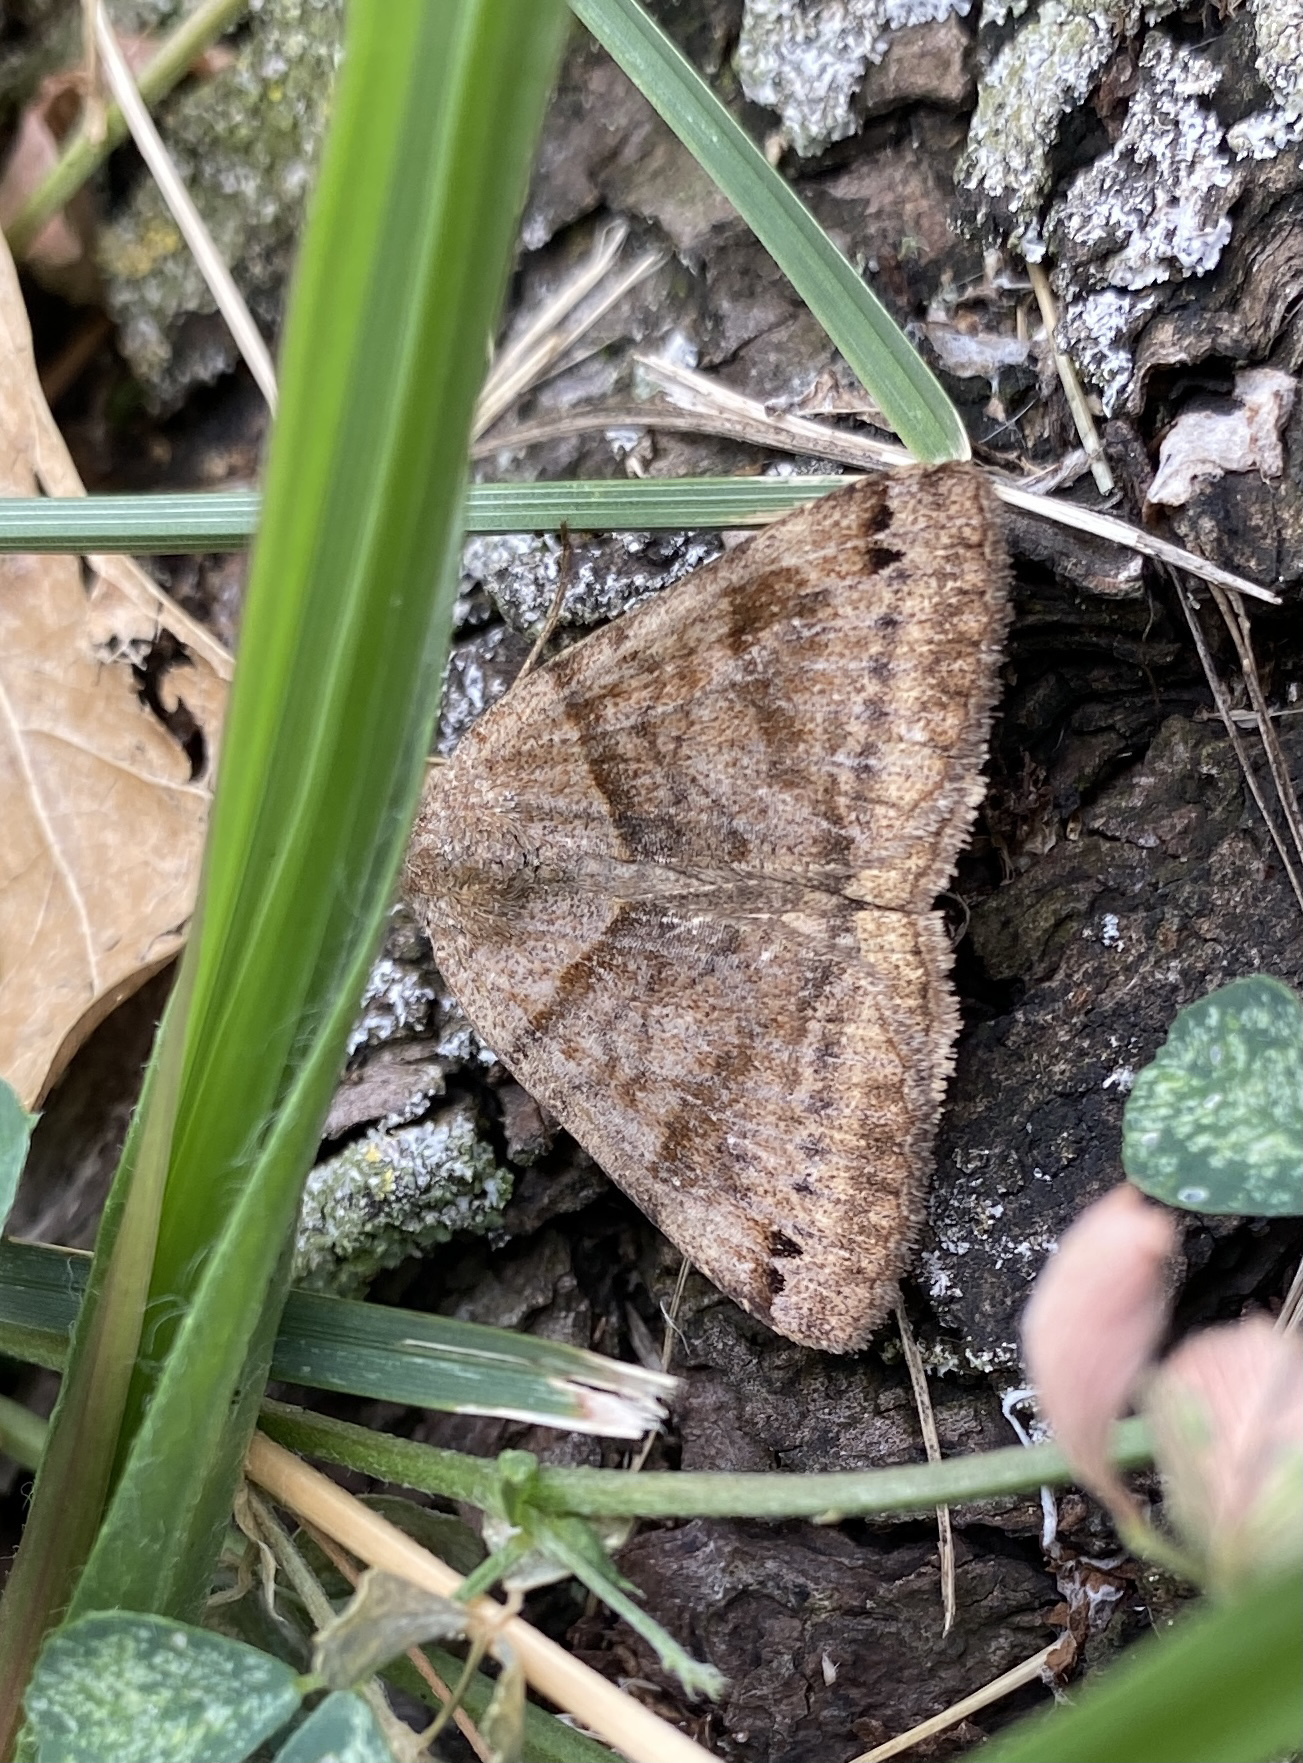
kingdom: Animalia
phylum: Arthropoda
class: Insecta
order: Lepidoptera
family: Erebidae
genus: Caenurgina
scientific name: Caenurgina crassiuscula
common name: Double-barred
